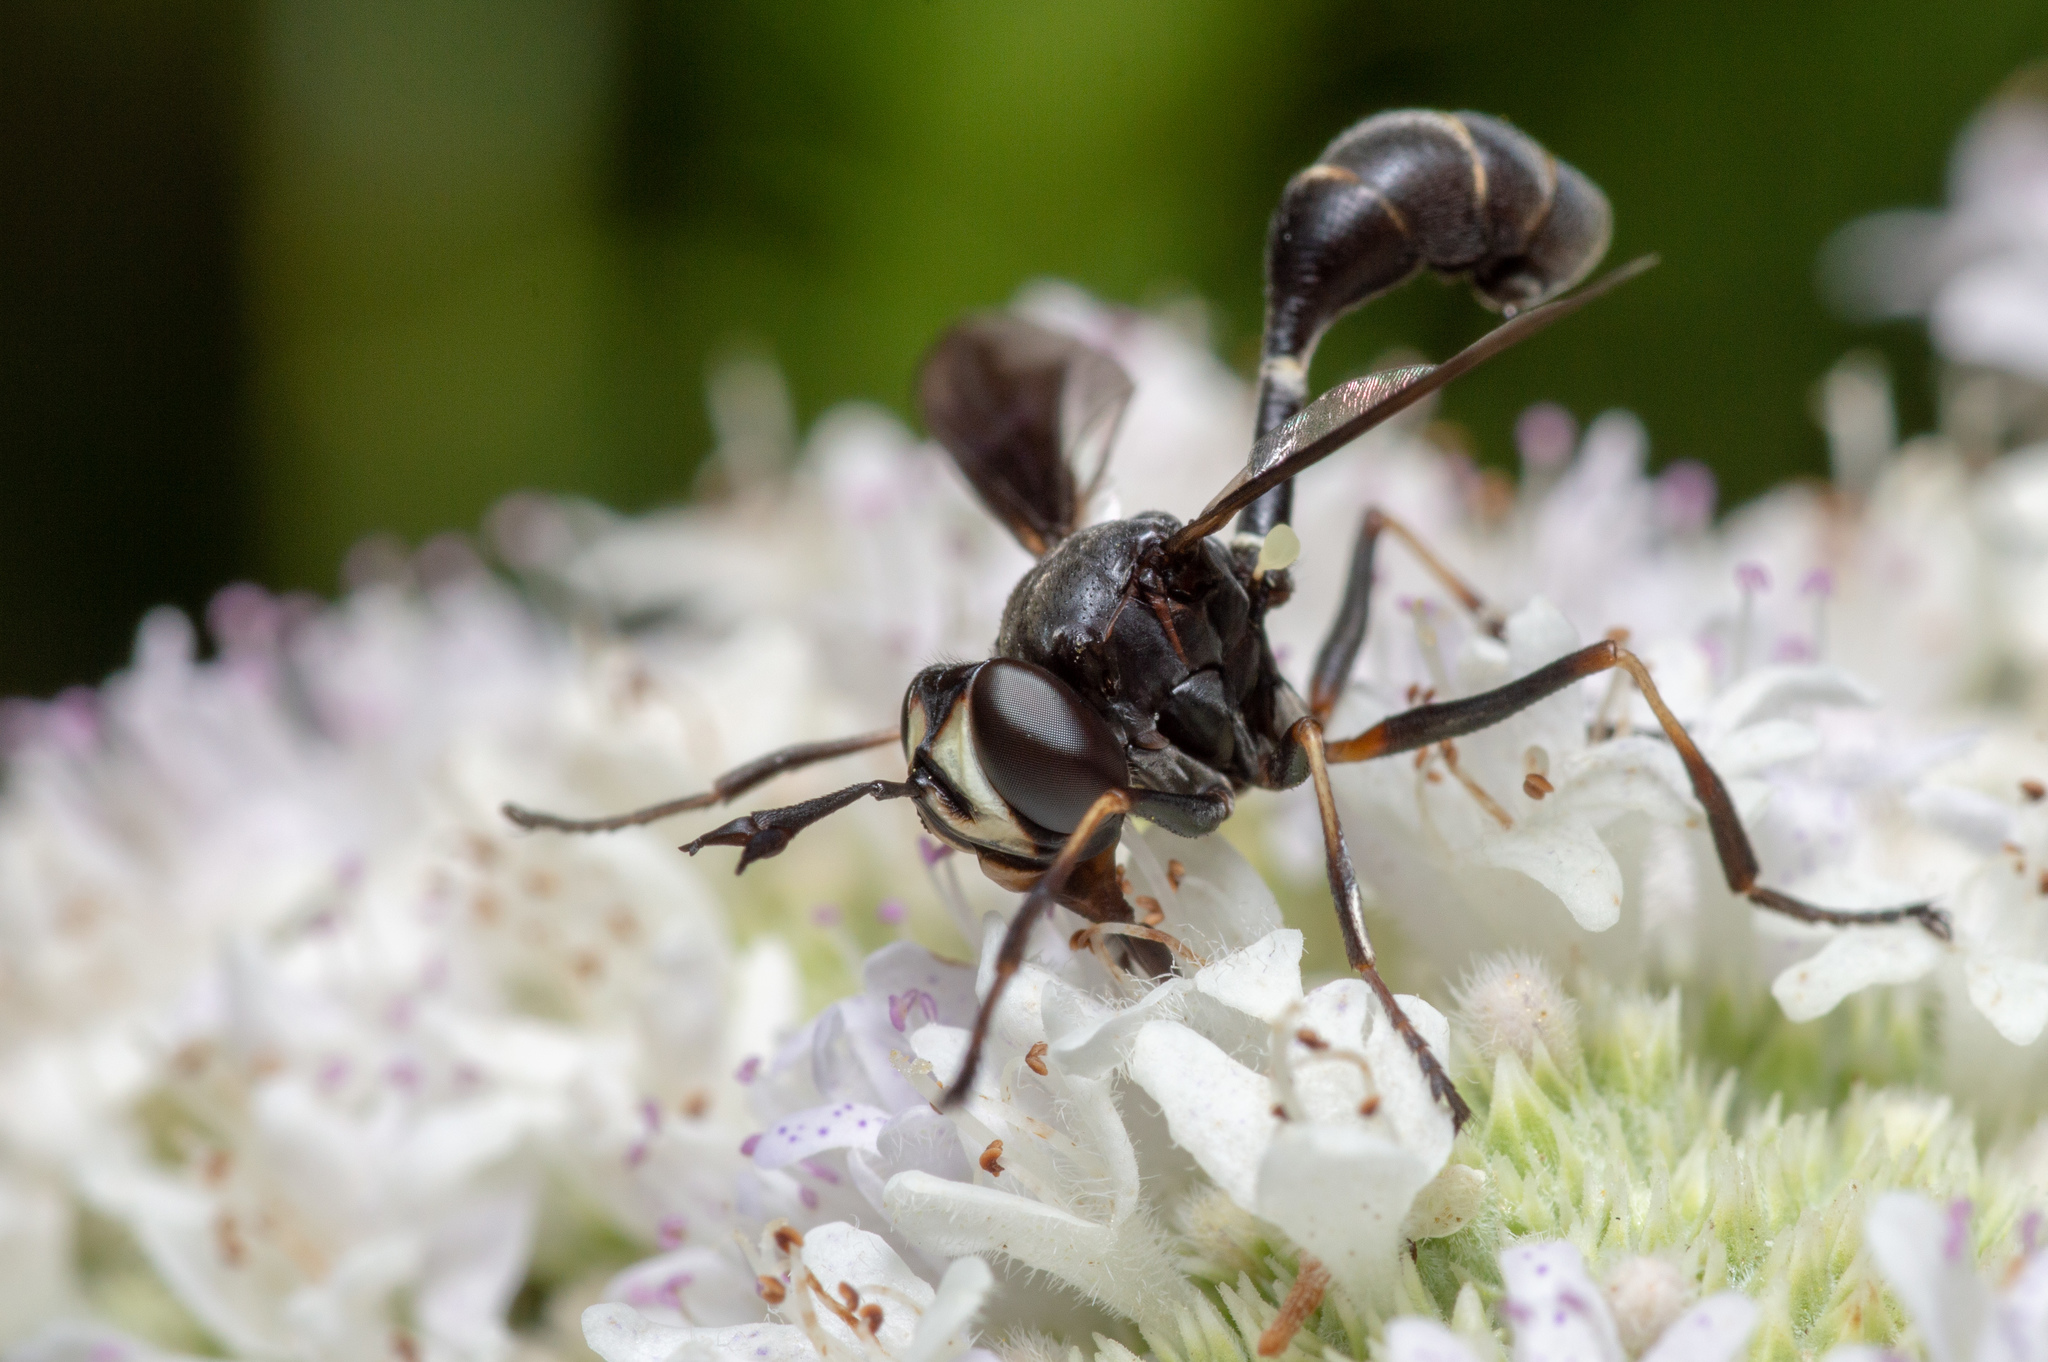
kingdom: Animalia
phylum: Arthropoda
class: Insecta
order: Diptera
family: Conopidae
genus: Physocephala
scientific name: Physocephala tibialis
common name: Common eastern physocephala
